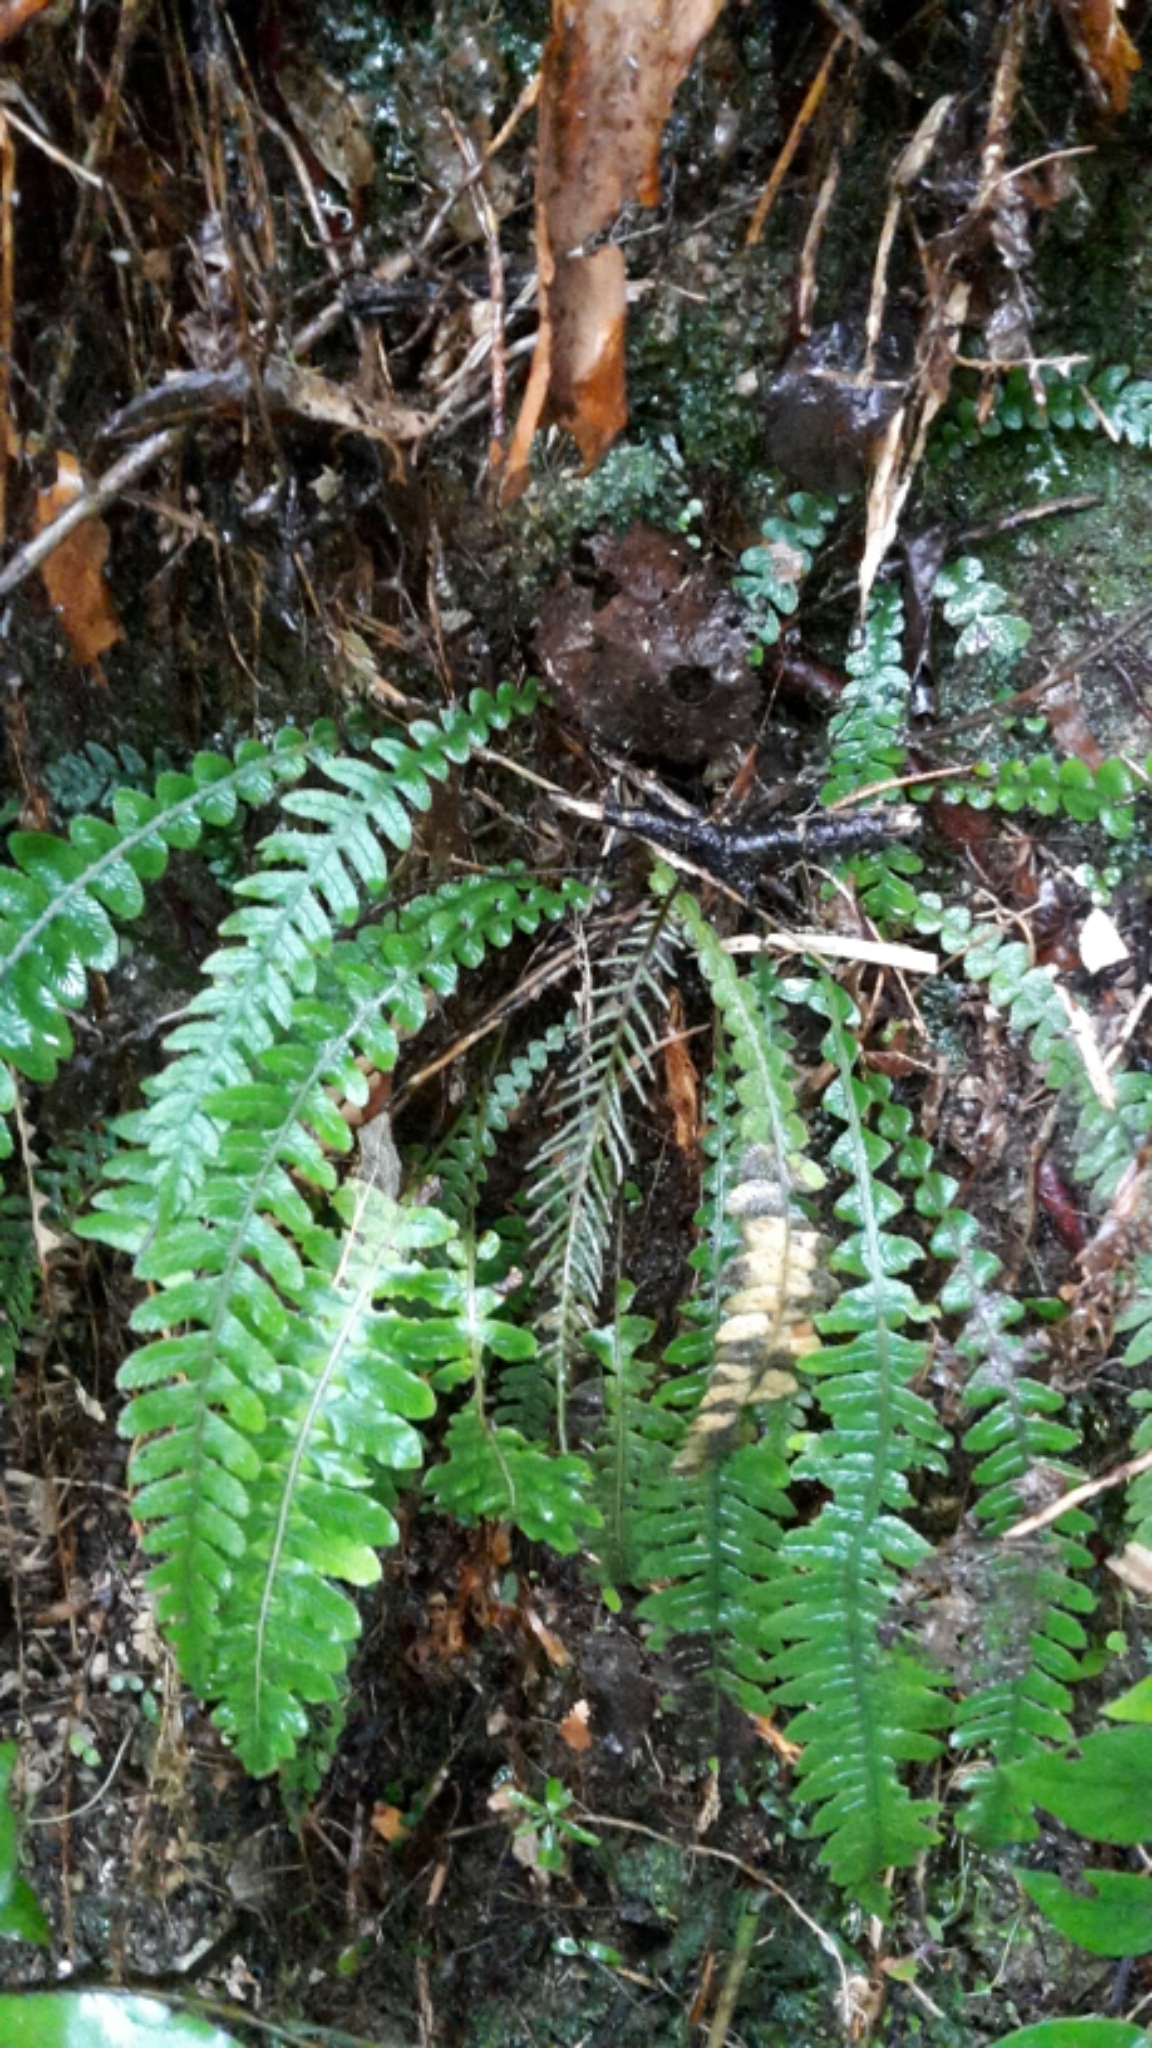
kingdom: Plantae
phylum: Tracheophyta
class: Polypodiopsida
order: Polypodiales
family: Blechnaceae
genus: Austroblechnum
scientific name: Austroblechnum lanceolatum
